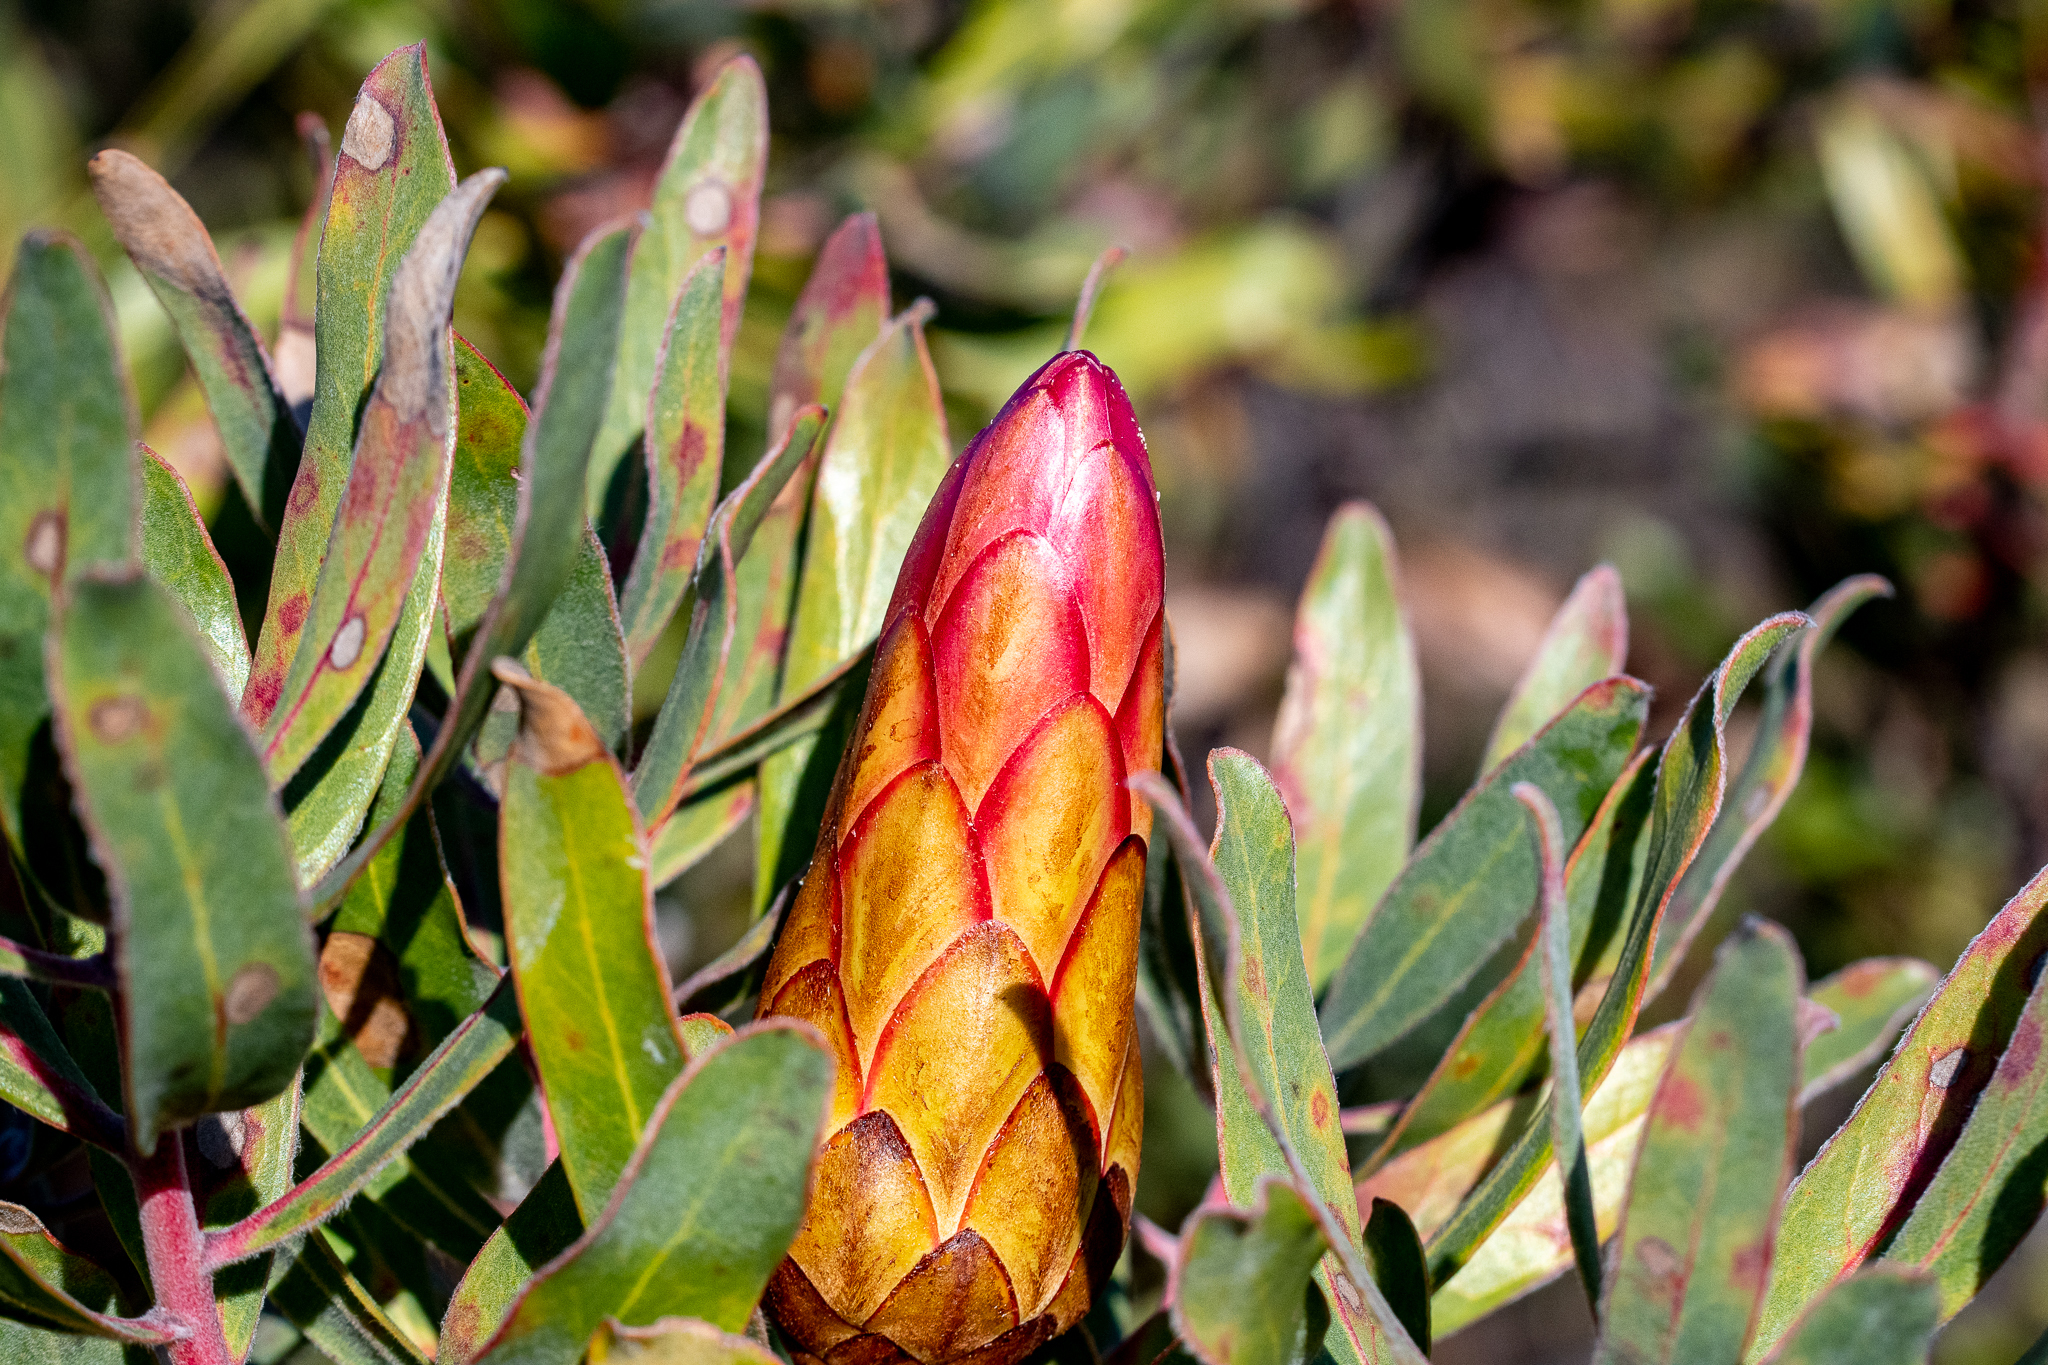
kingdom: Plantae
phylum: Tracheophyta
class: Magnoliopsida
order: Proteales
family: Proteaceae
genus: Protea
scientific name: Protea susannae
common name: Foetid-leaf sugarbush
